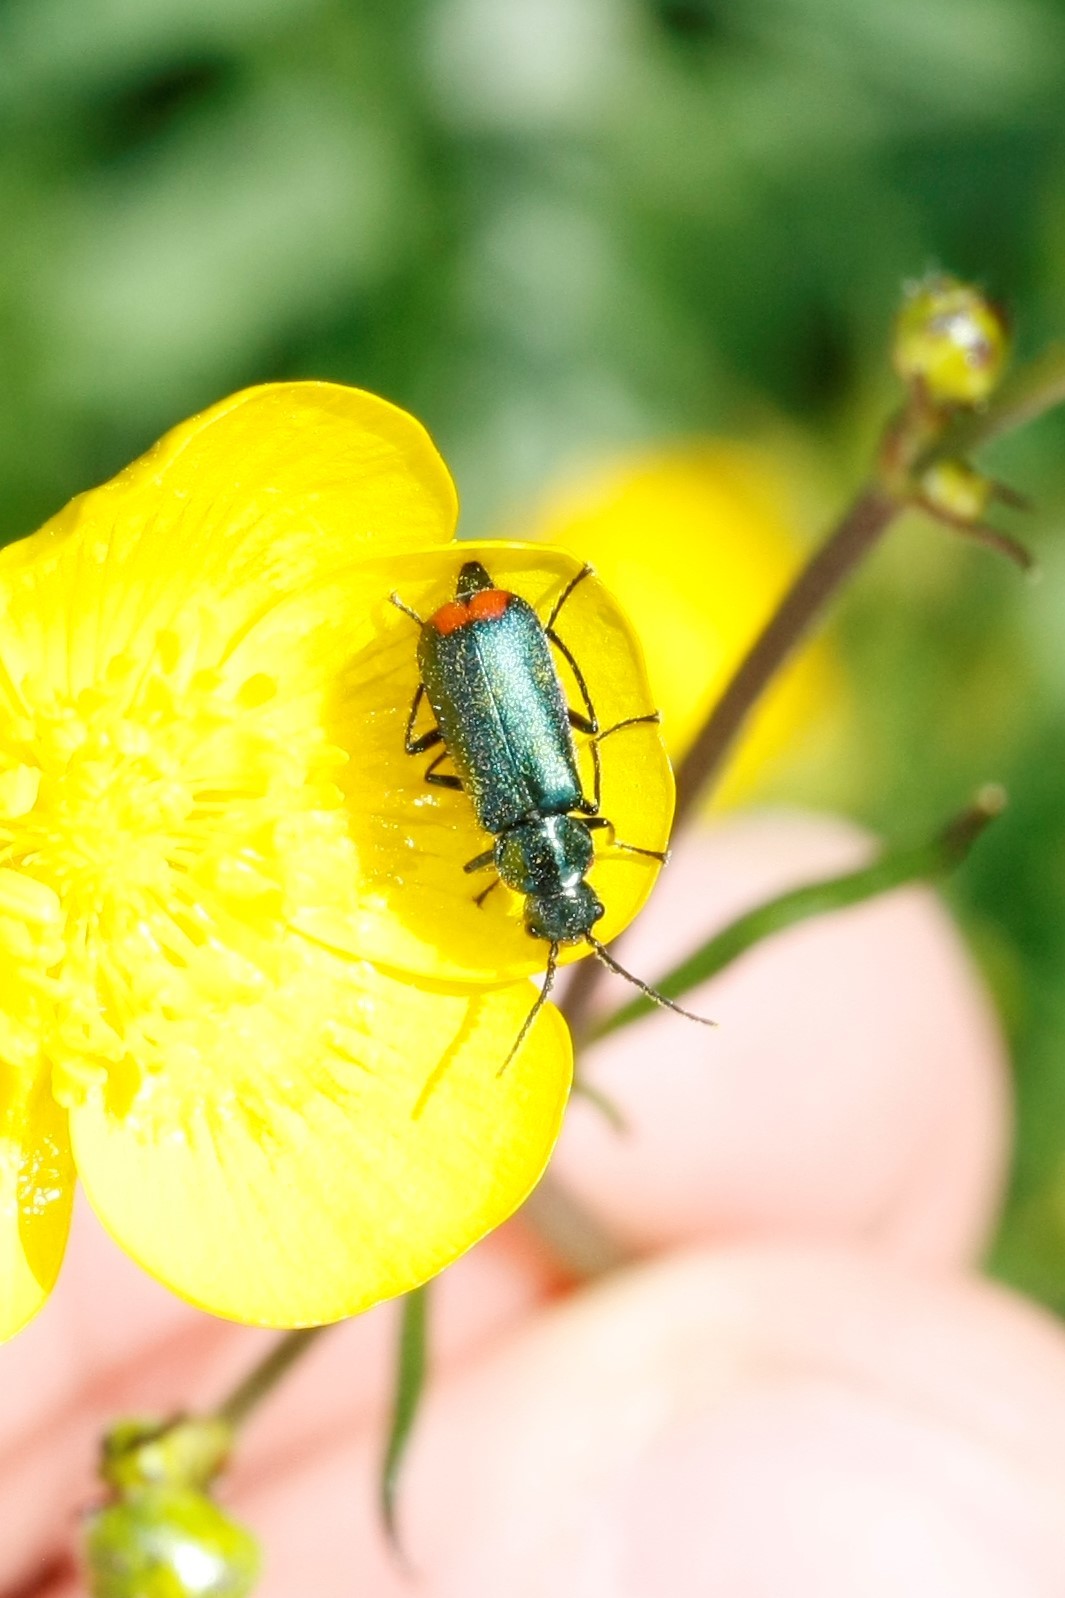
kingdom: Animalia
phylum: Arthropoda
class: Insecta
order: Coleoptera
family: Melyridae
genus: Malachius
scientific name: Malachius bipustulatus
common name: Malachite beetle
